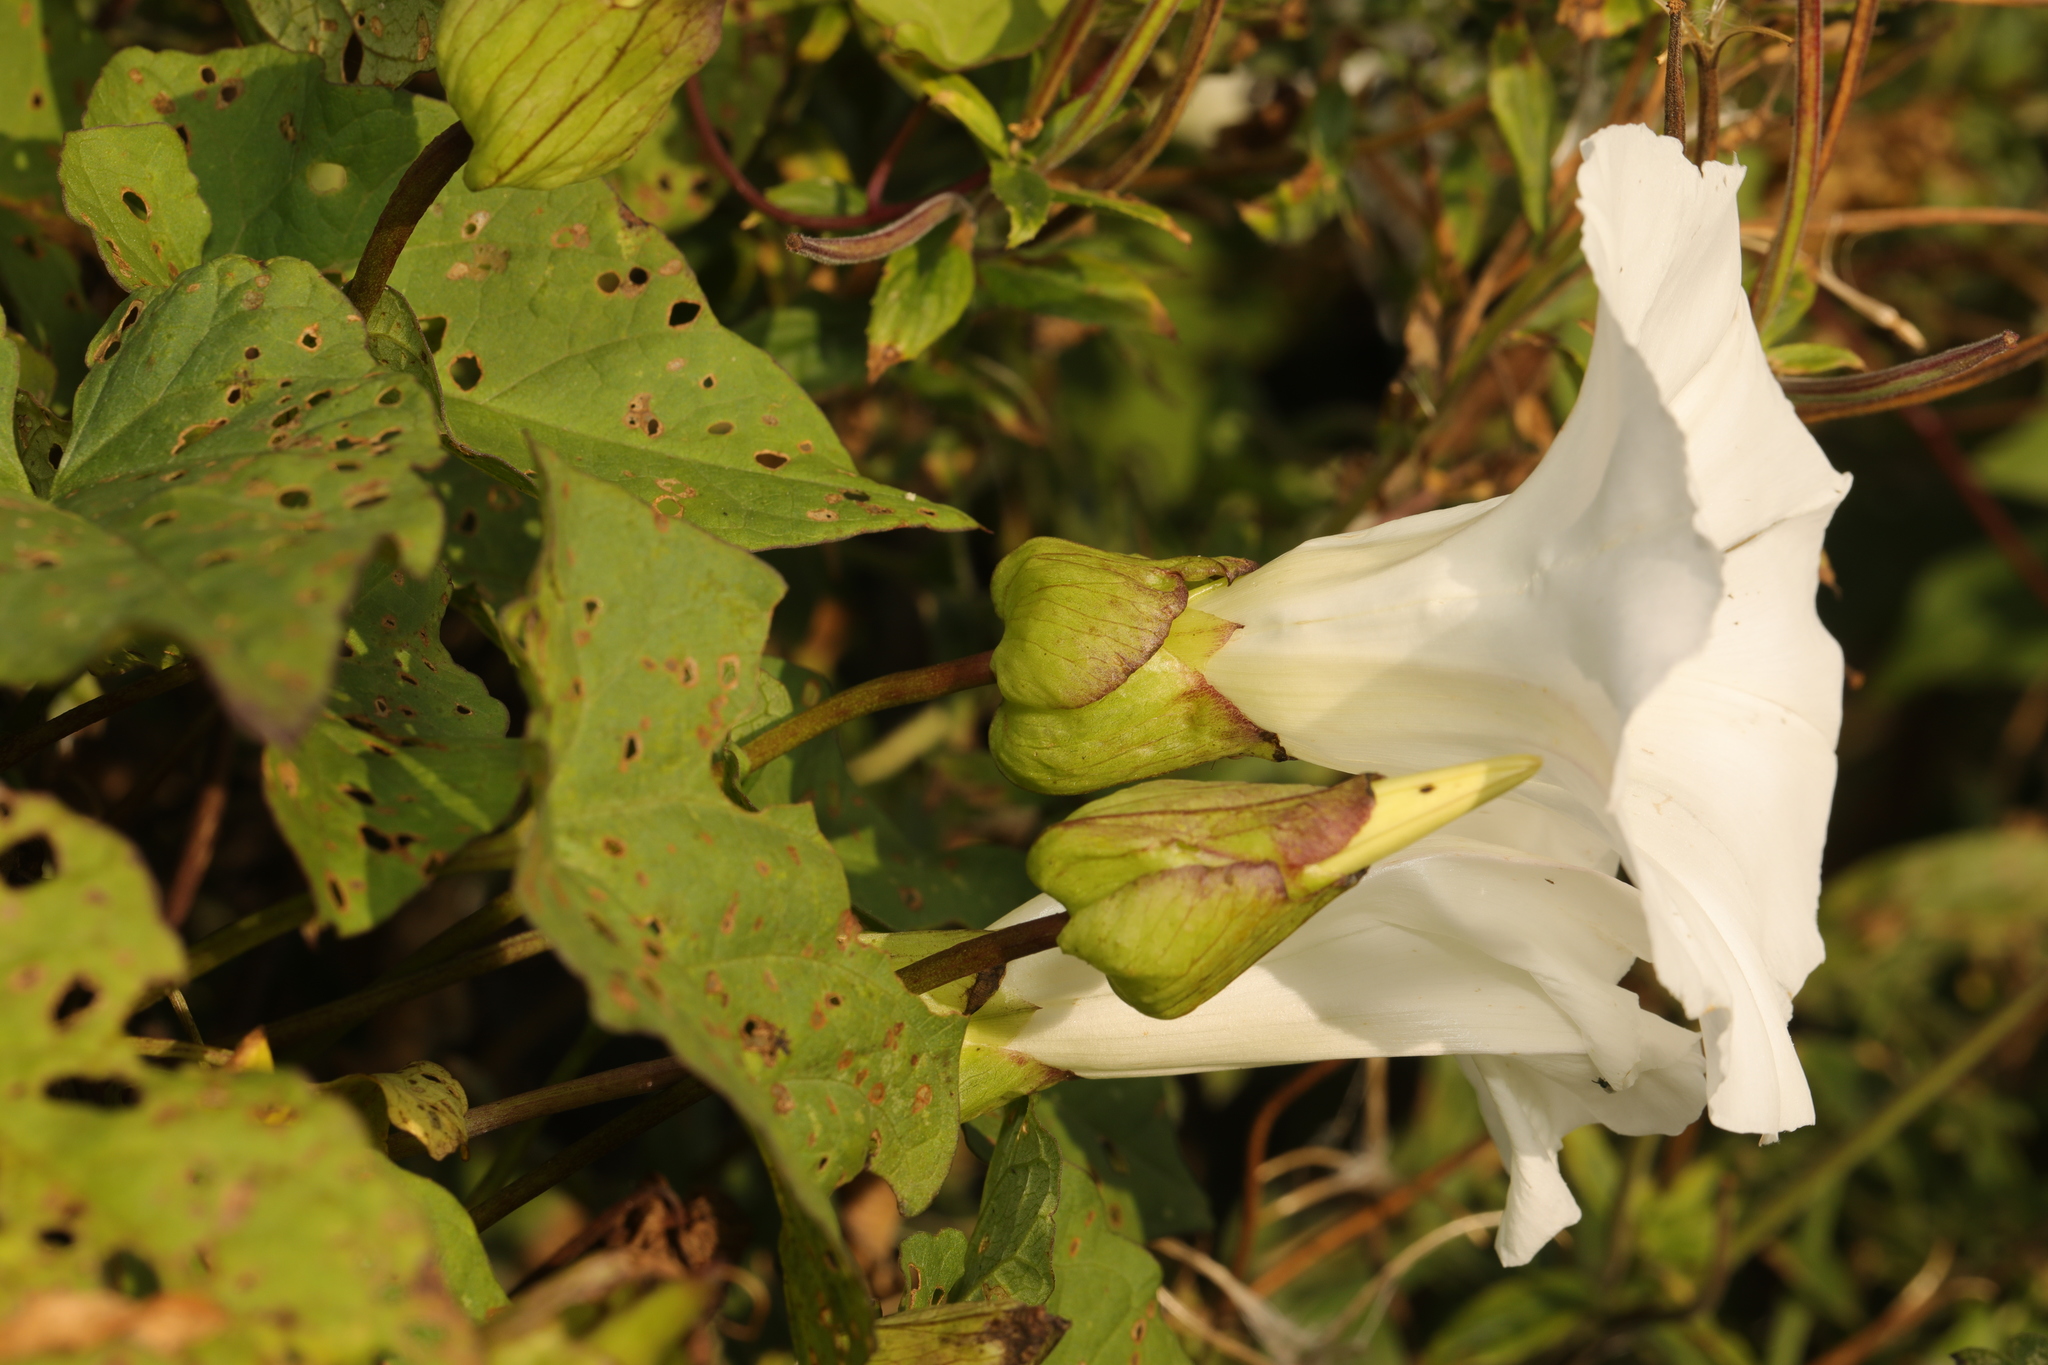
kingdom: Plantae
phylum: Tracheophyta
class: Magnoliopsida
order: Solanales
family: Convolvulaceae
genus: Calystegia
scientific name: Calystegia silvatica
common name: Large bindweed
